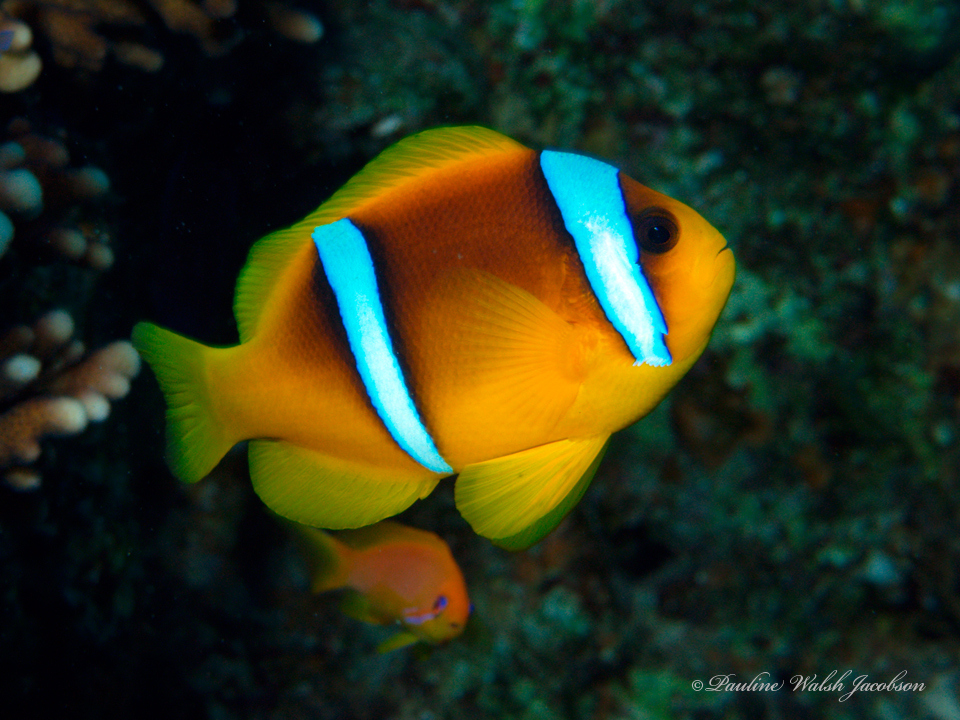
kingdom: Animalia
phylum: Chordata
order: Perciformes
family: Pomacentridae
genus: Amphiprion
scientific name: Amphiprion bicinctus
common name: Two-banded anemonefish
